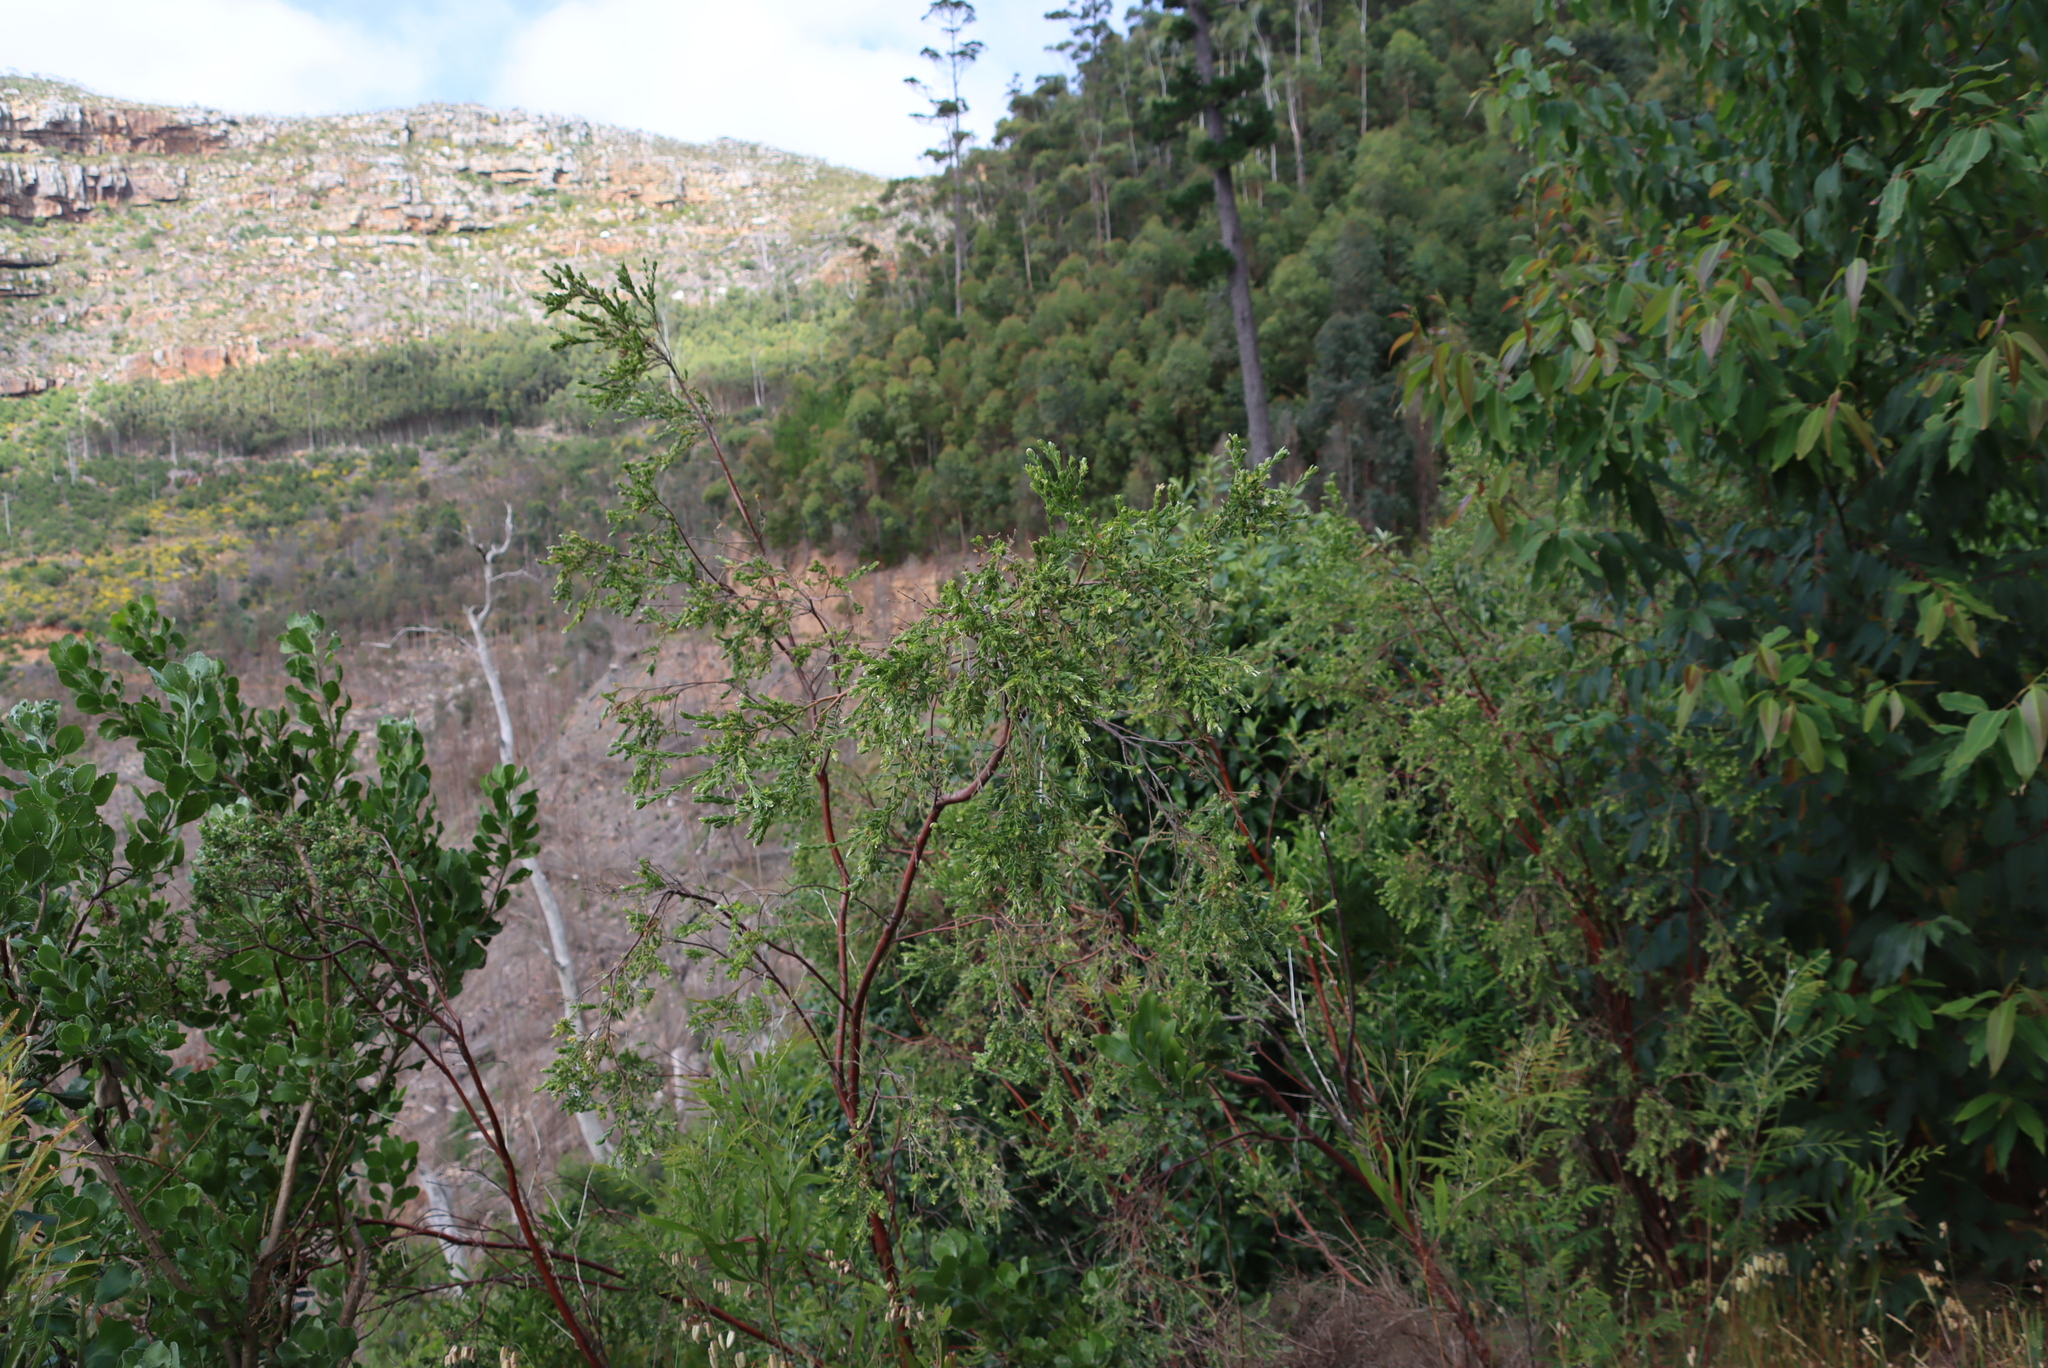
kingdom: Plantae
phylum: Tracheophyta
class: Magnoliopsida
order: Malvales
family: Thymelaeaceae
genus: Gnidia
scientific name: Gnidia sericea
